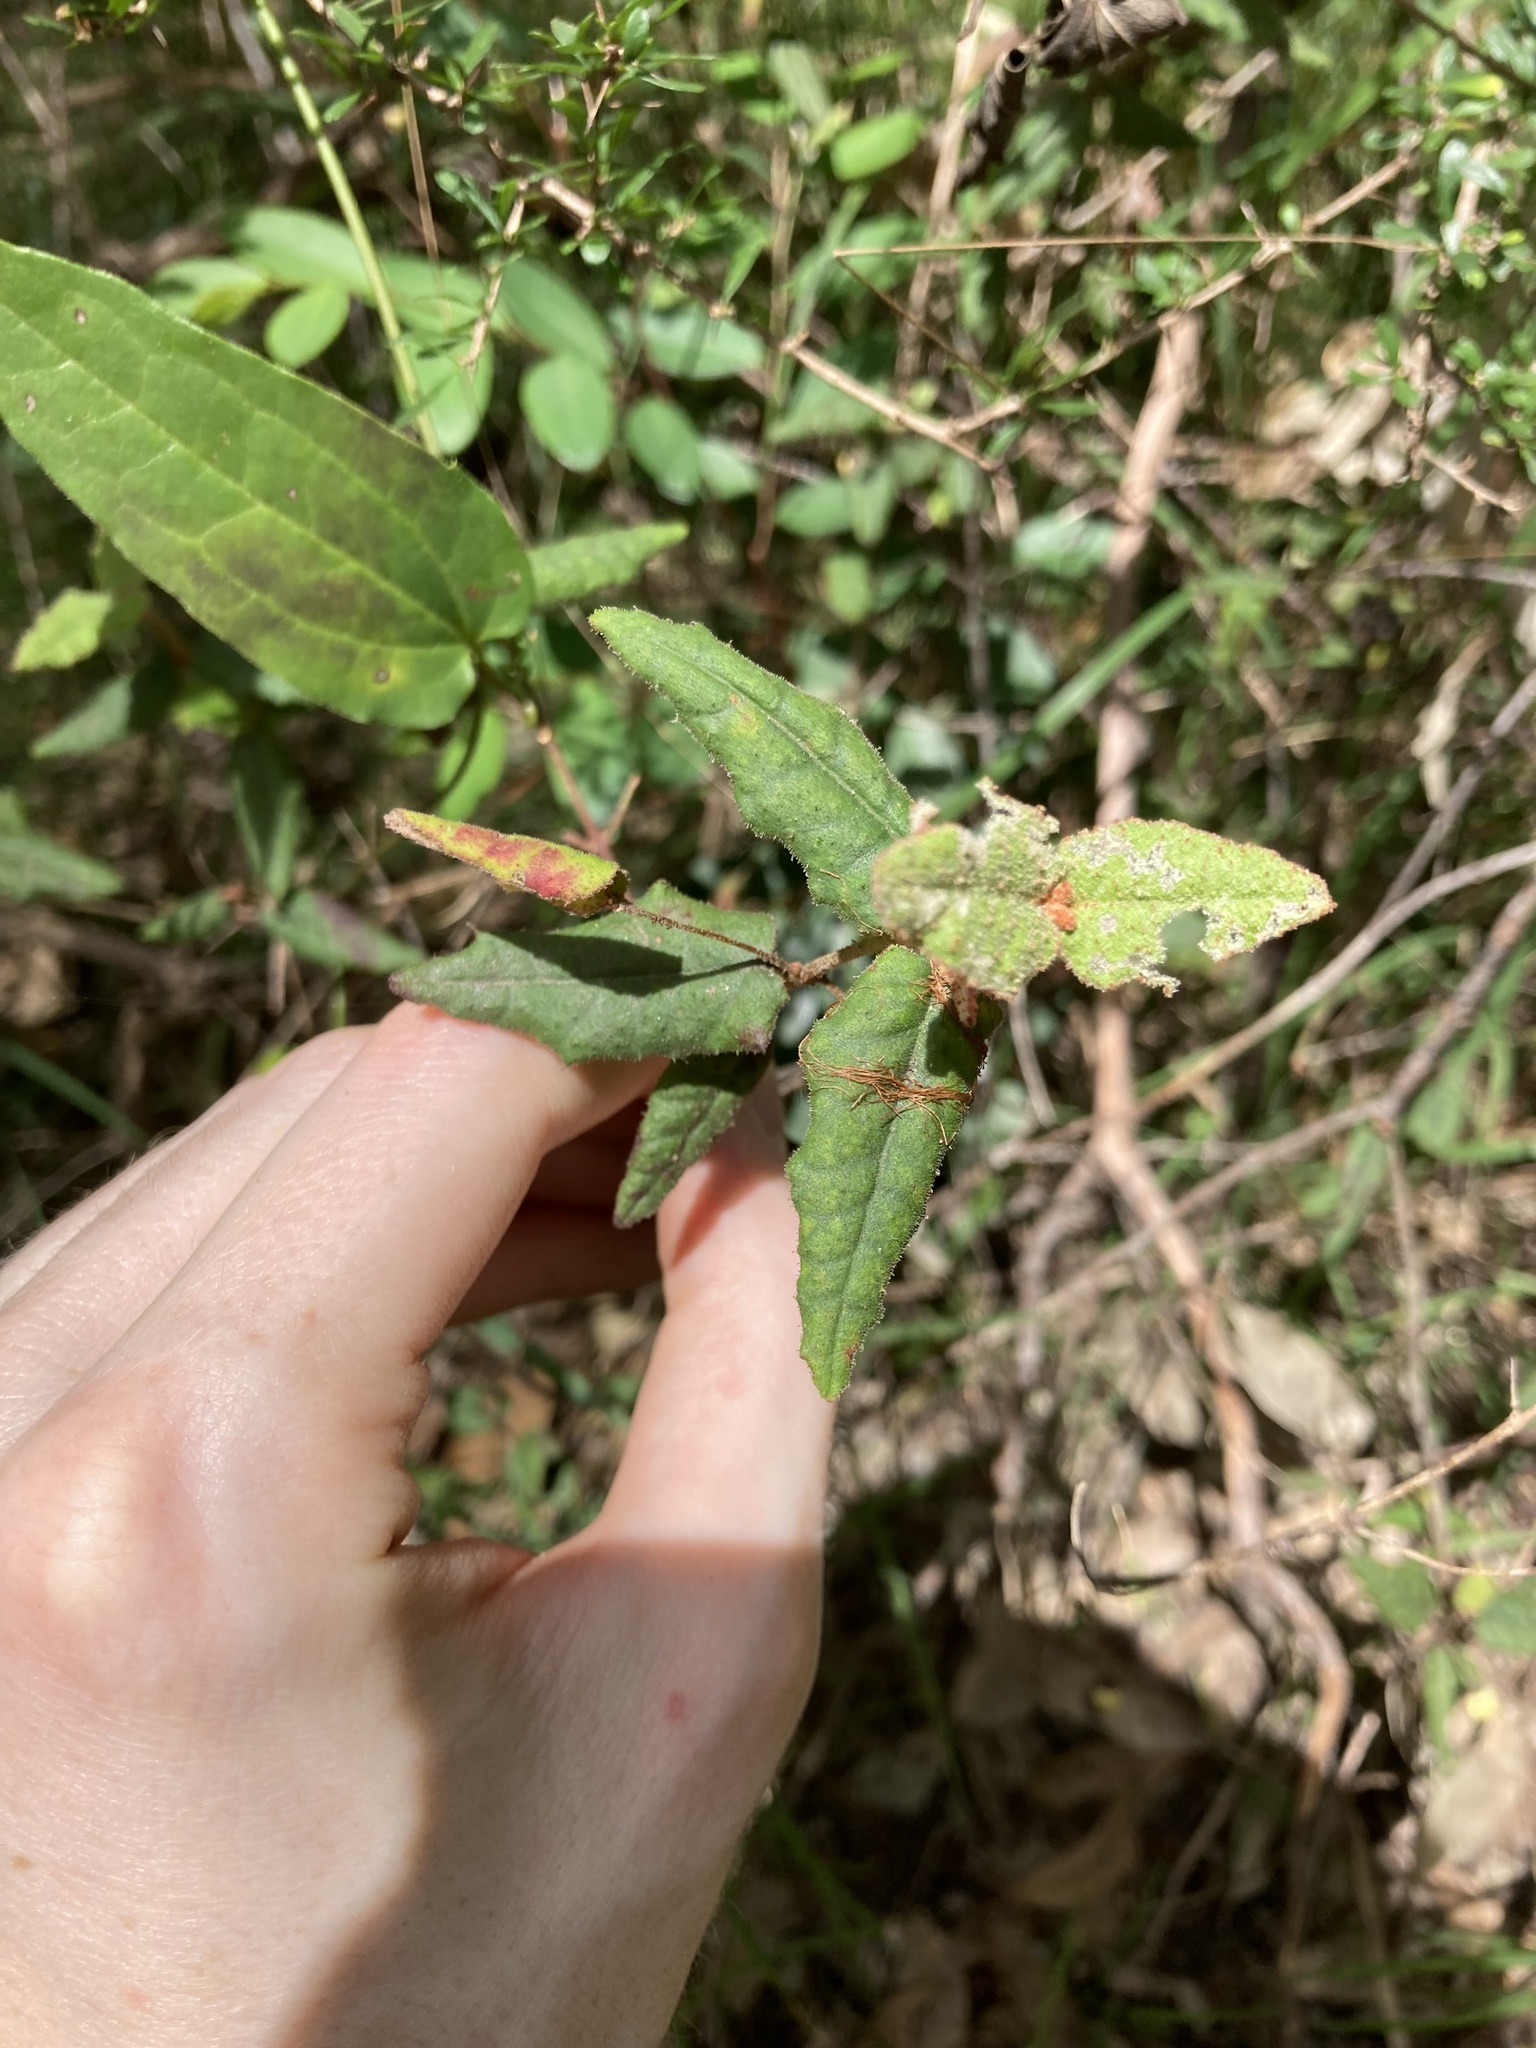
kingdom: Plantae
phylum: Tracheophyta
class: Magnoliopsida
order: Sapindales
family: Rutaceae
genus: Correa
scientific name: Correa reflexa
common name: Common correa
